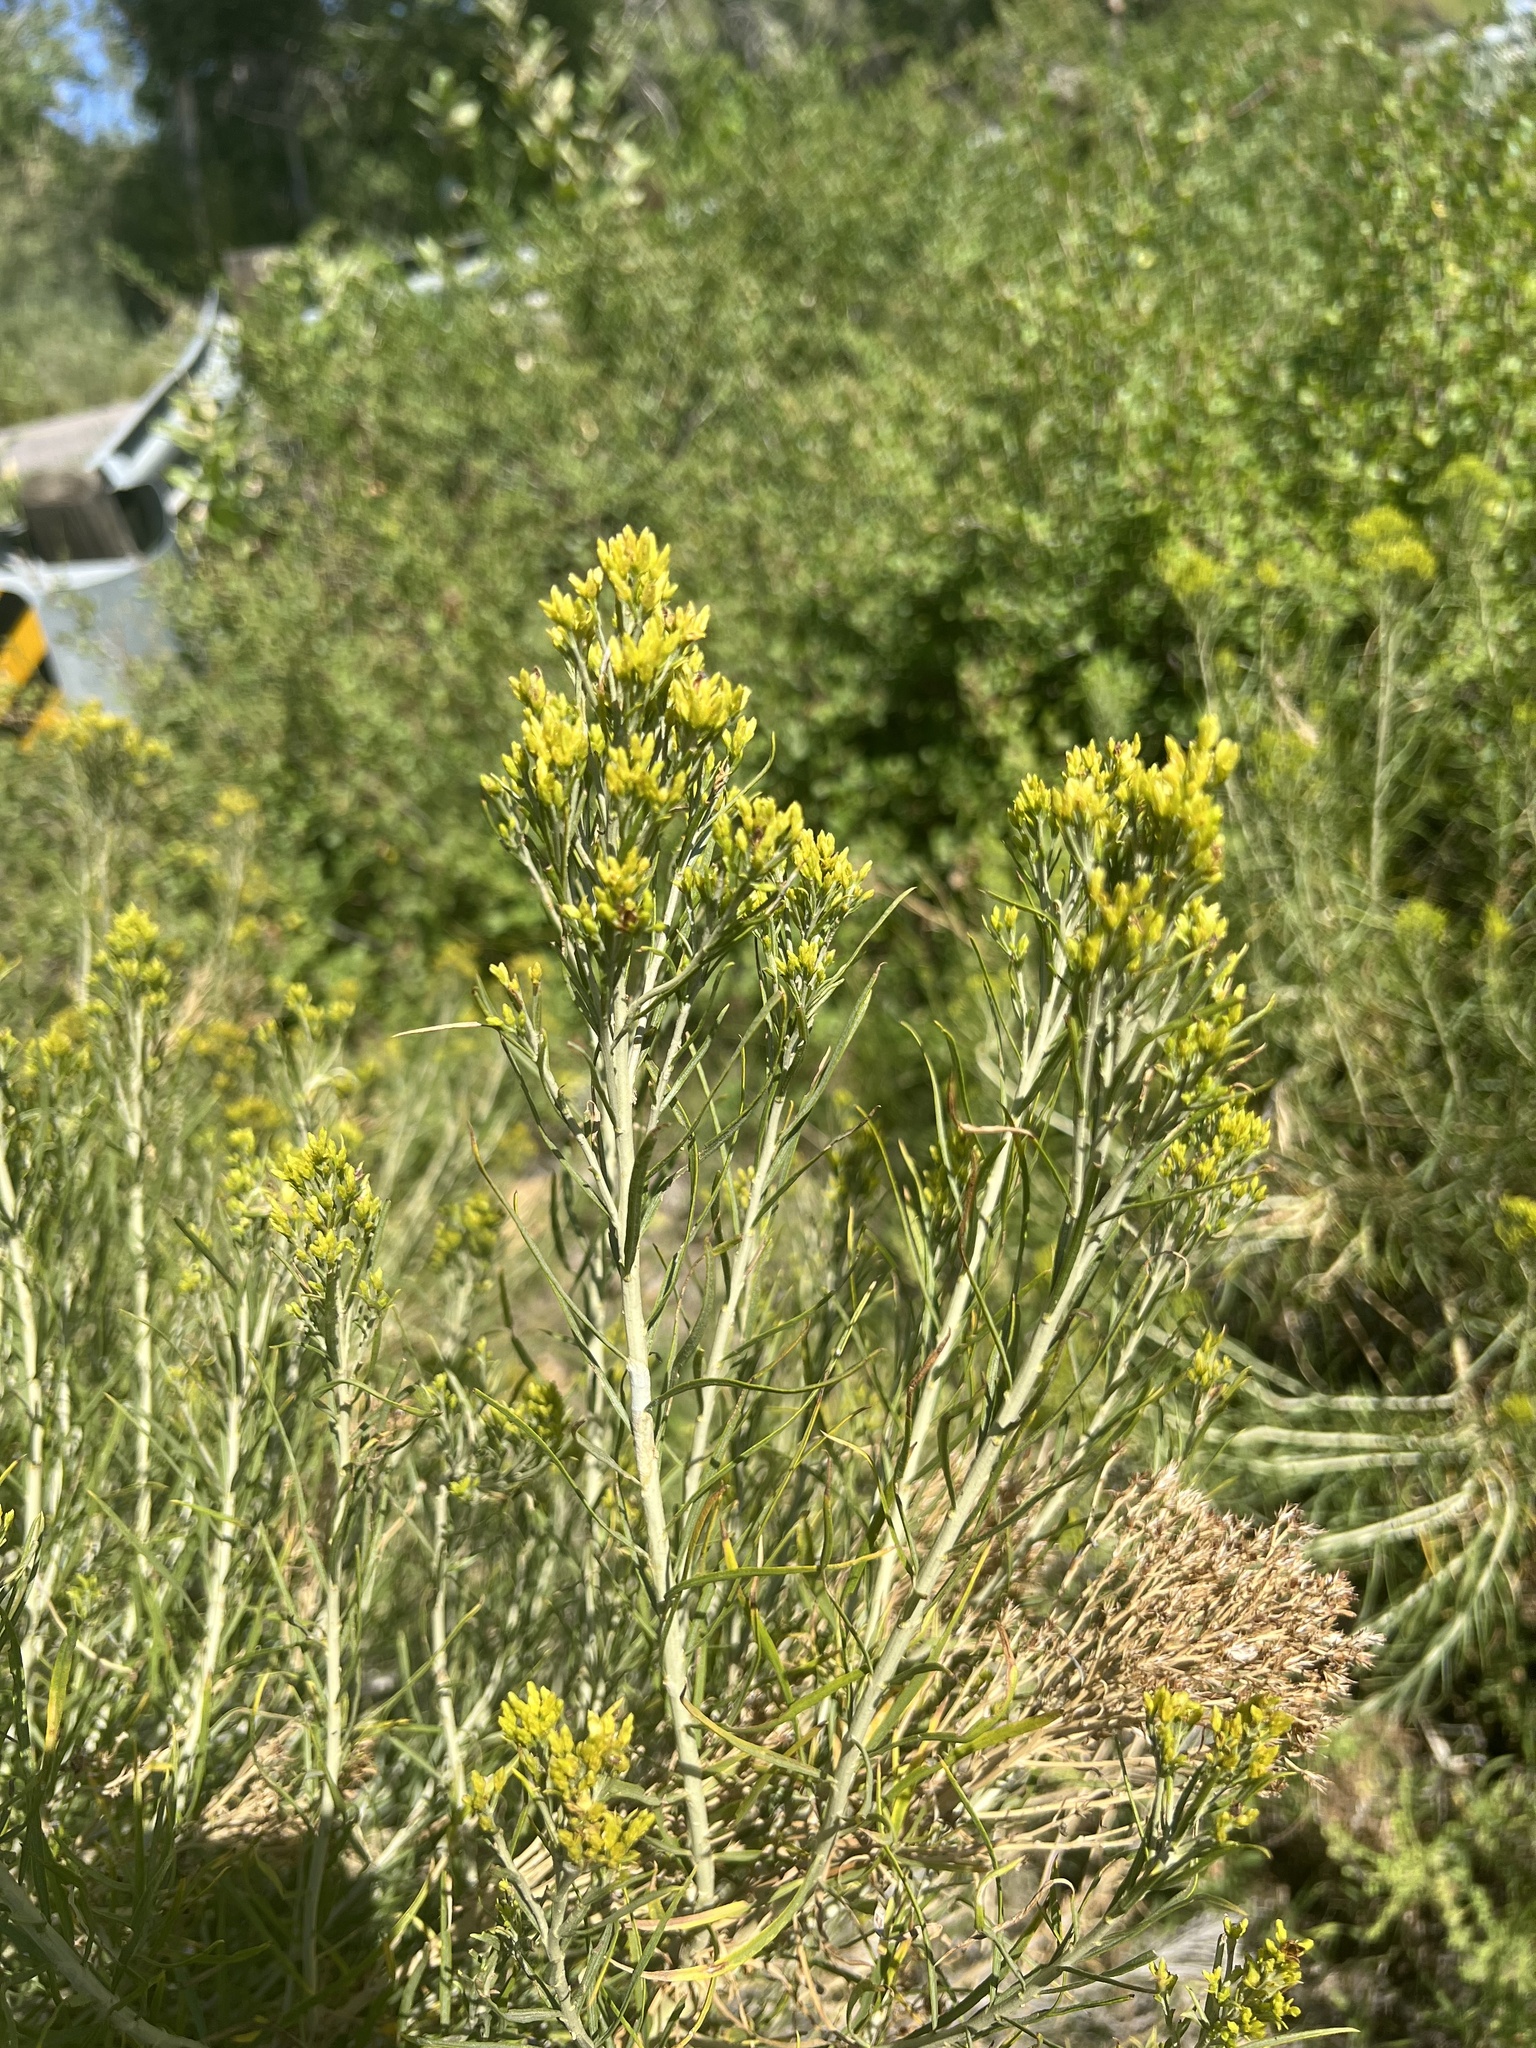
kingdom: Plantae
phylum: Tracheophyta
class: Magnoliopsida
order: Asterales
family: Asteraceae
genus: Ericameria
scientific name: Ericameria nauseosa
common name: Rubber rabbitbrush
